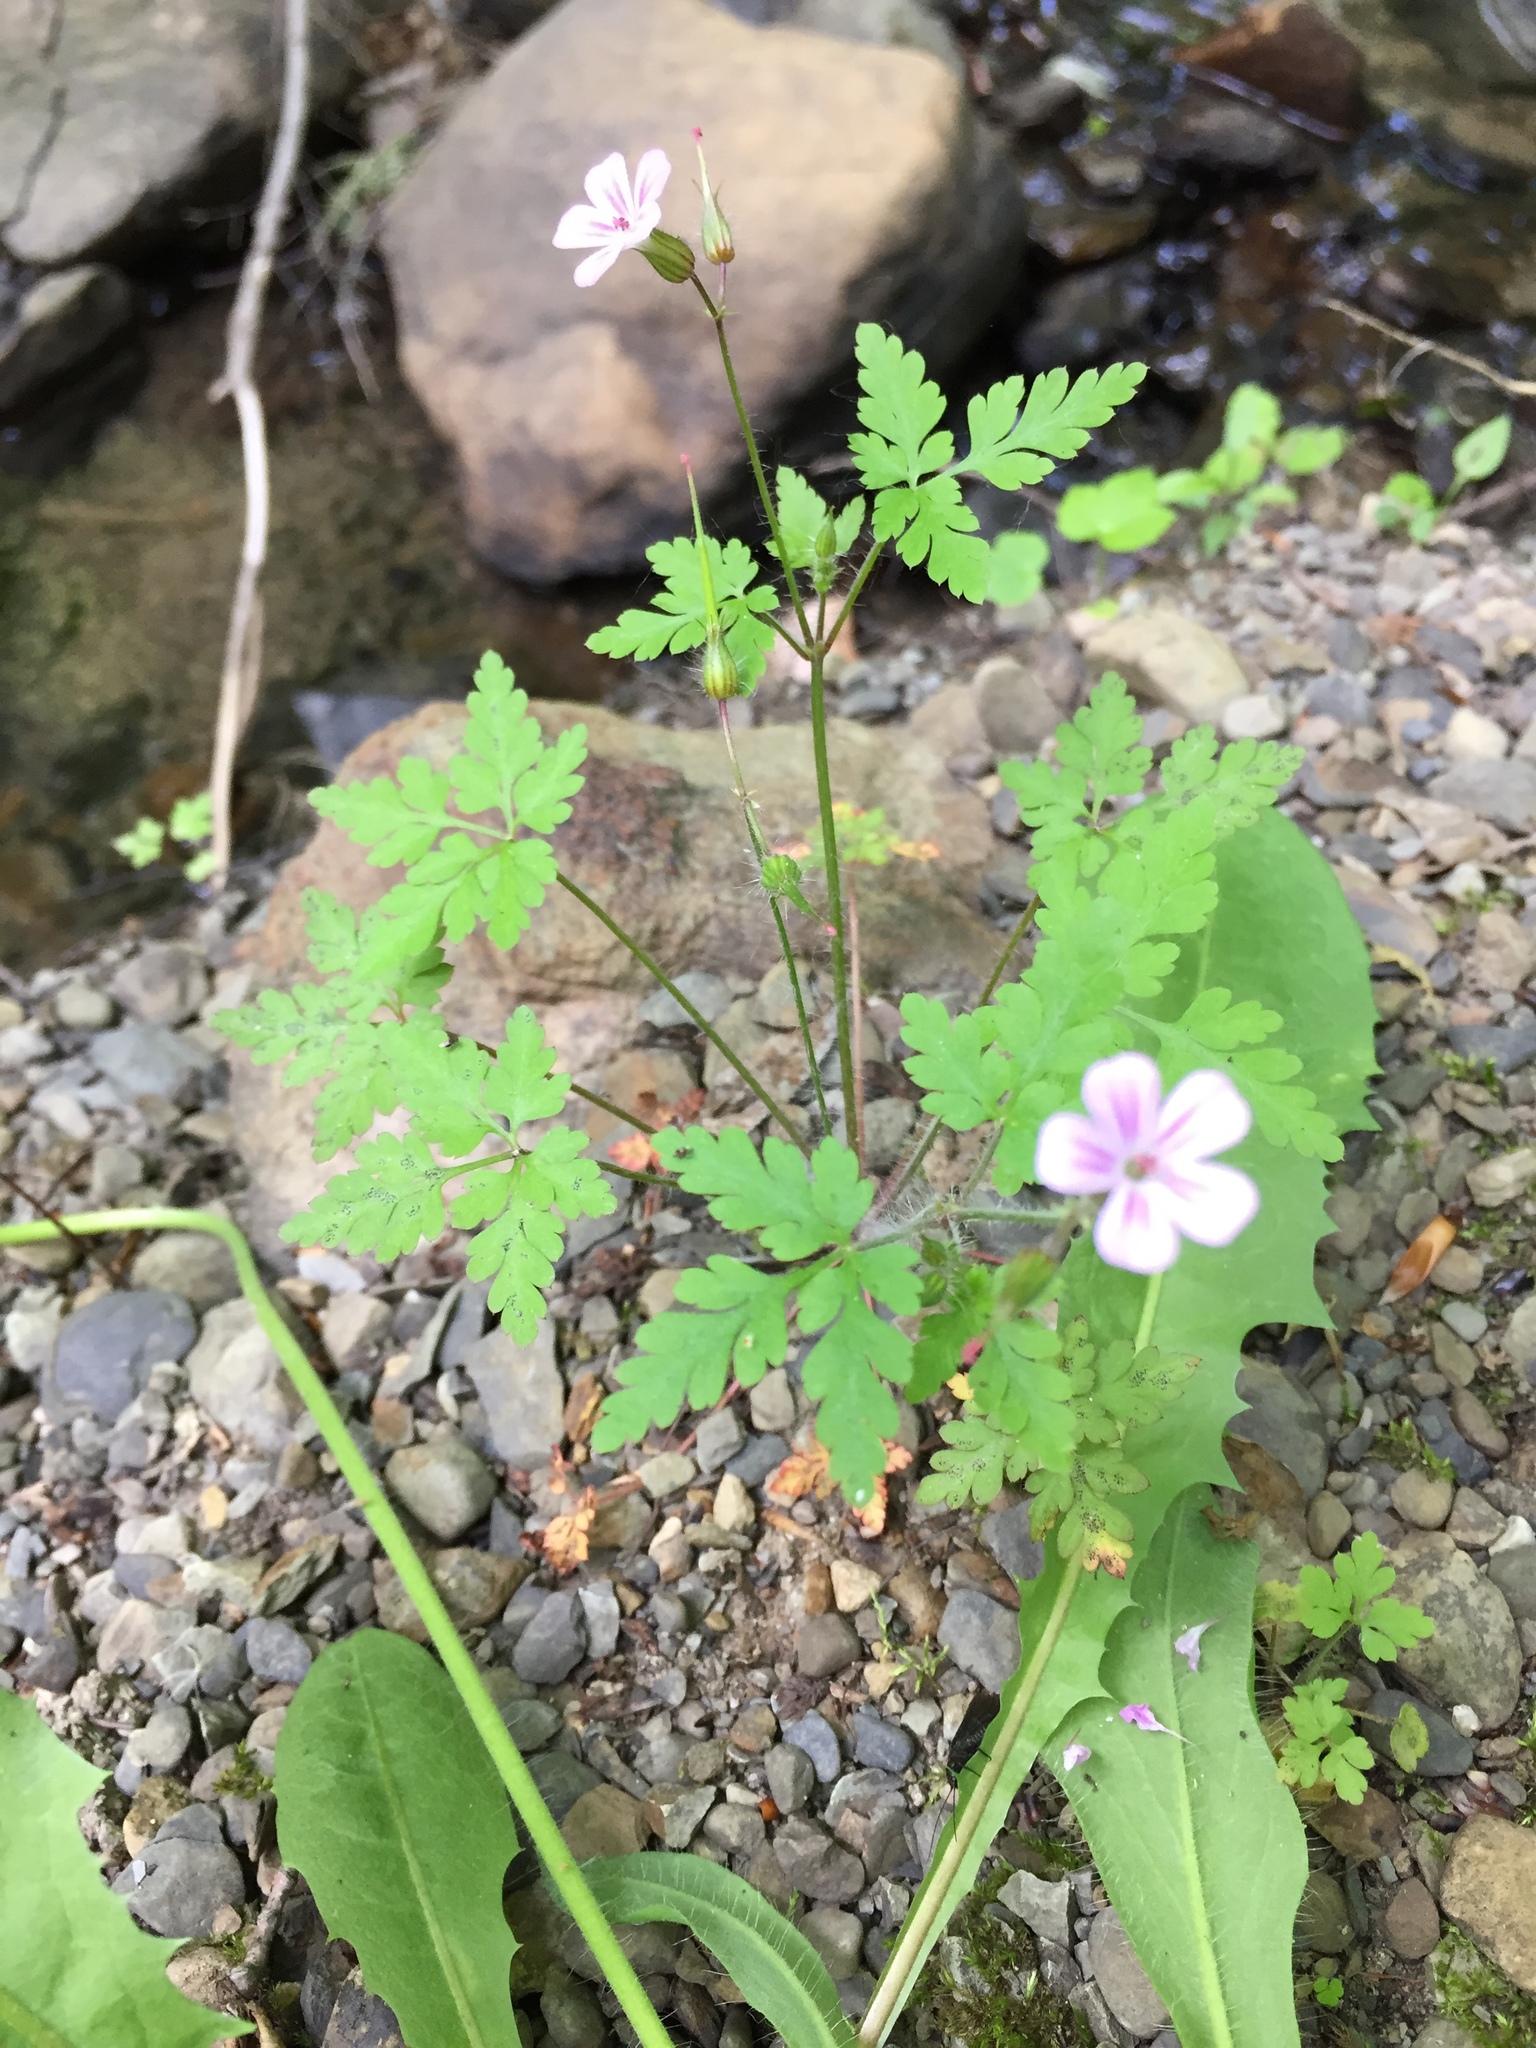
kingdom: Plantae
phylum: Tracheophyta
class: Magnoliopsida
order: Geraniales
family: Geraniaceae
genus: Geranium
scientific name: Geranium robertianum
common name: Herb-robert
